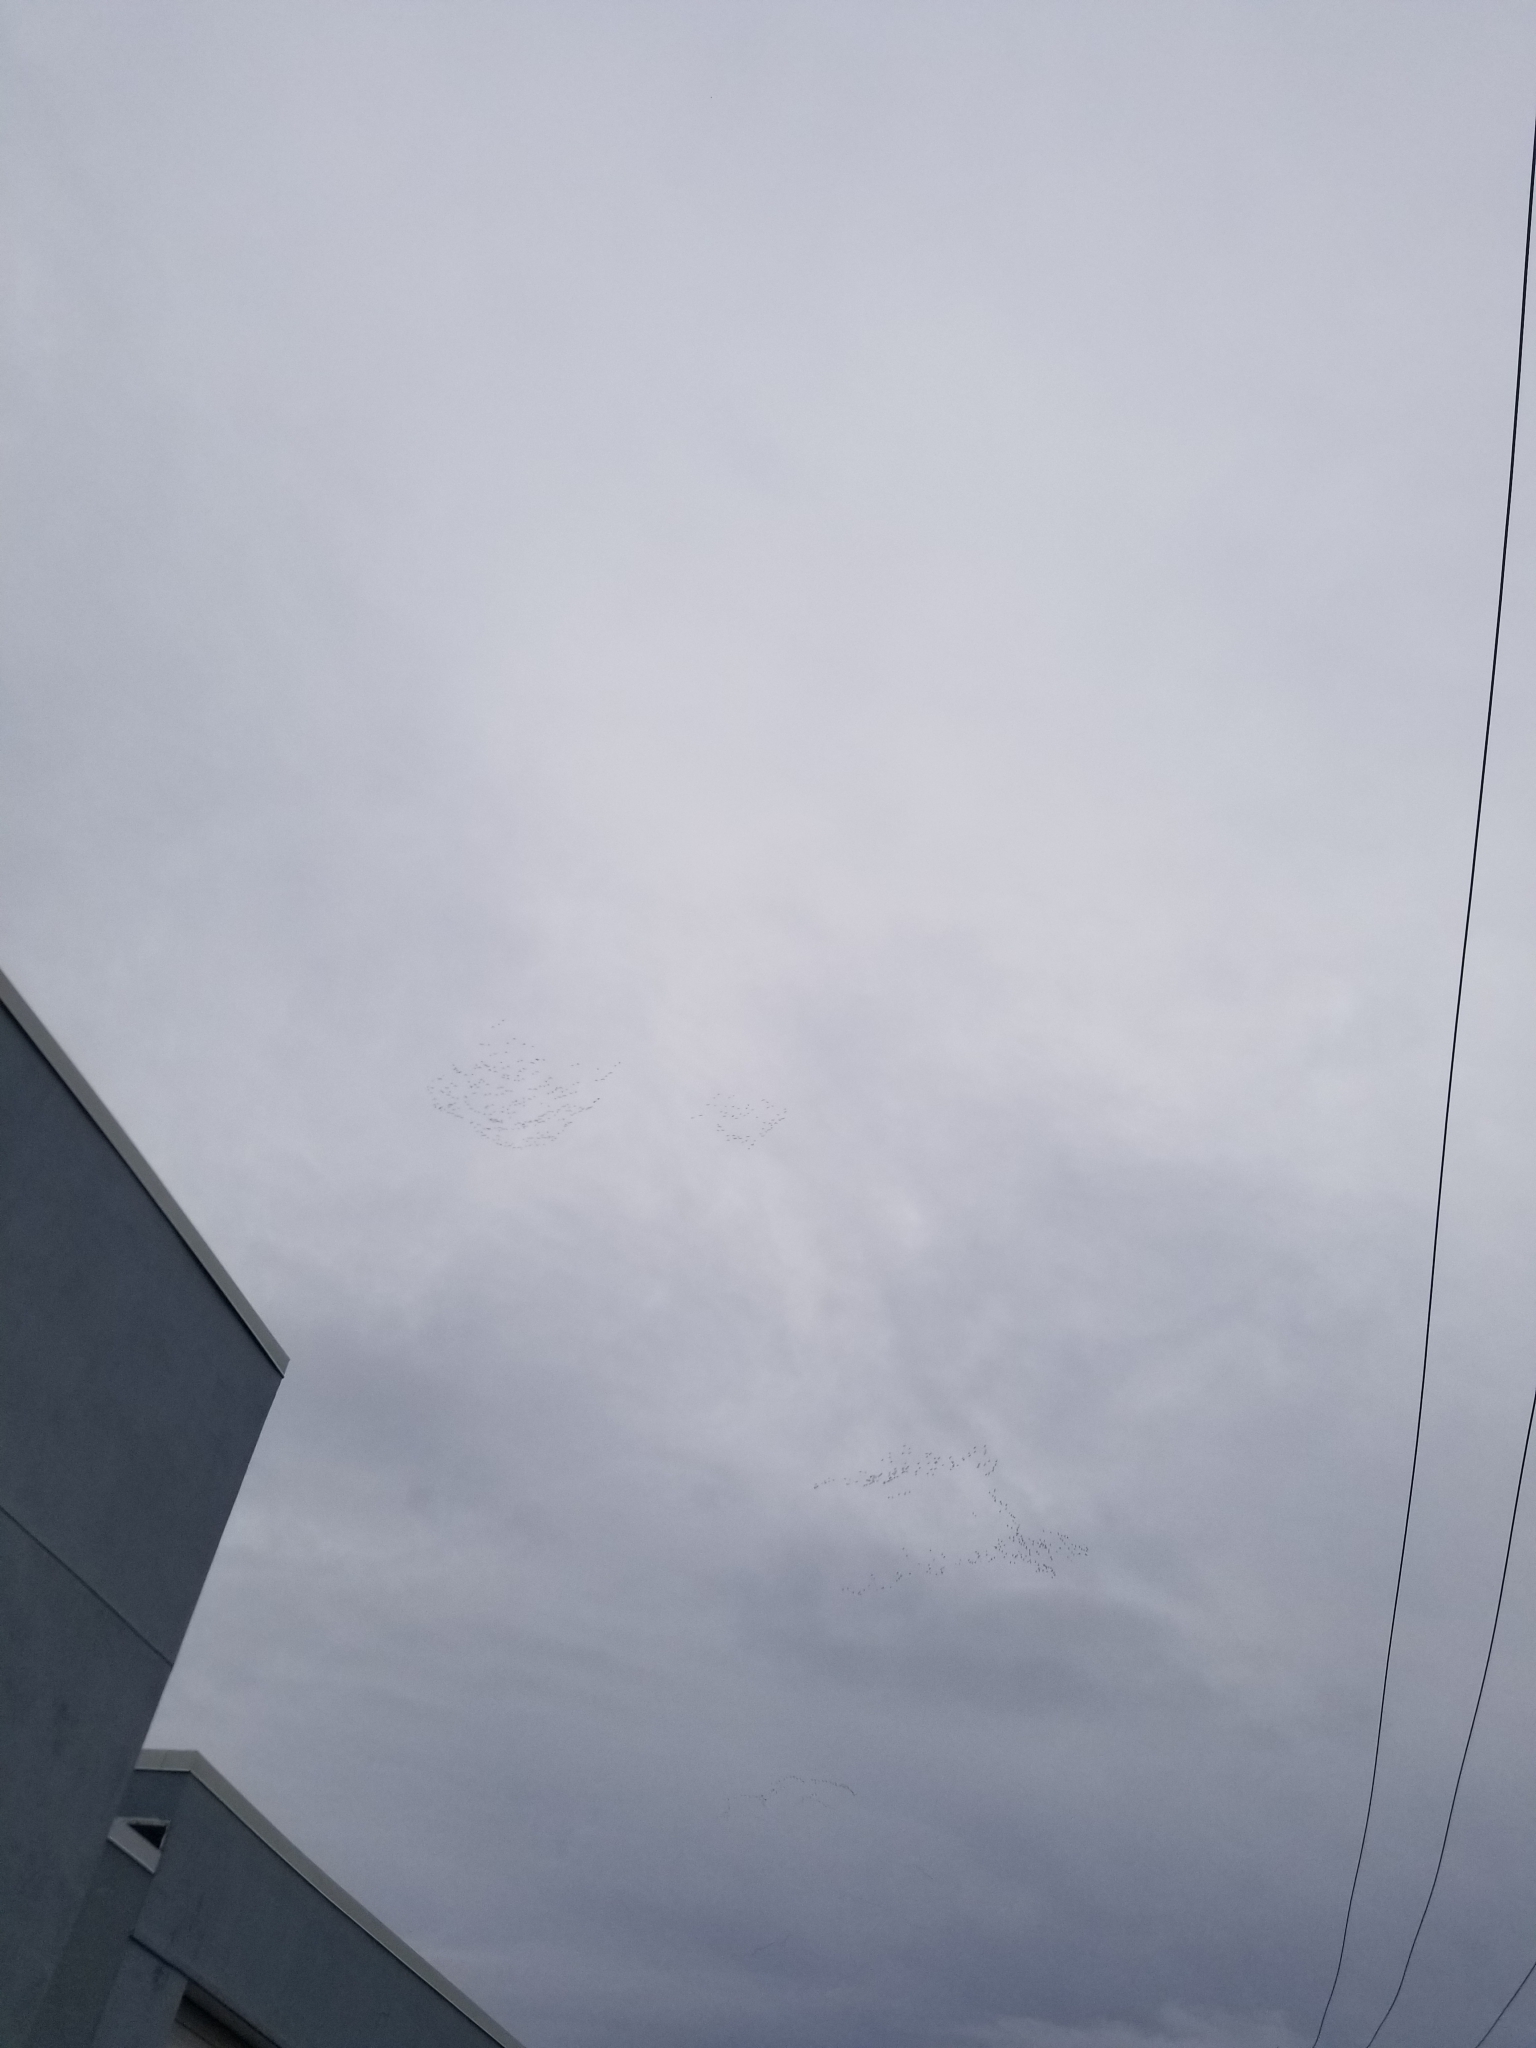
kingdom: Animalia
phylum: Chordata
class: Aves
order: Anseriformes
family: Anatidae
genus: Anser
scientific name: Anser caerulescens
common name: Snow goose
